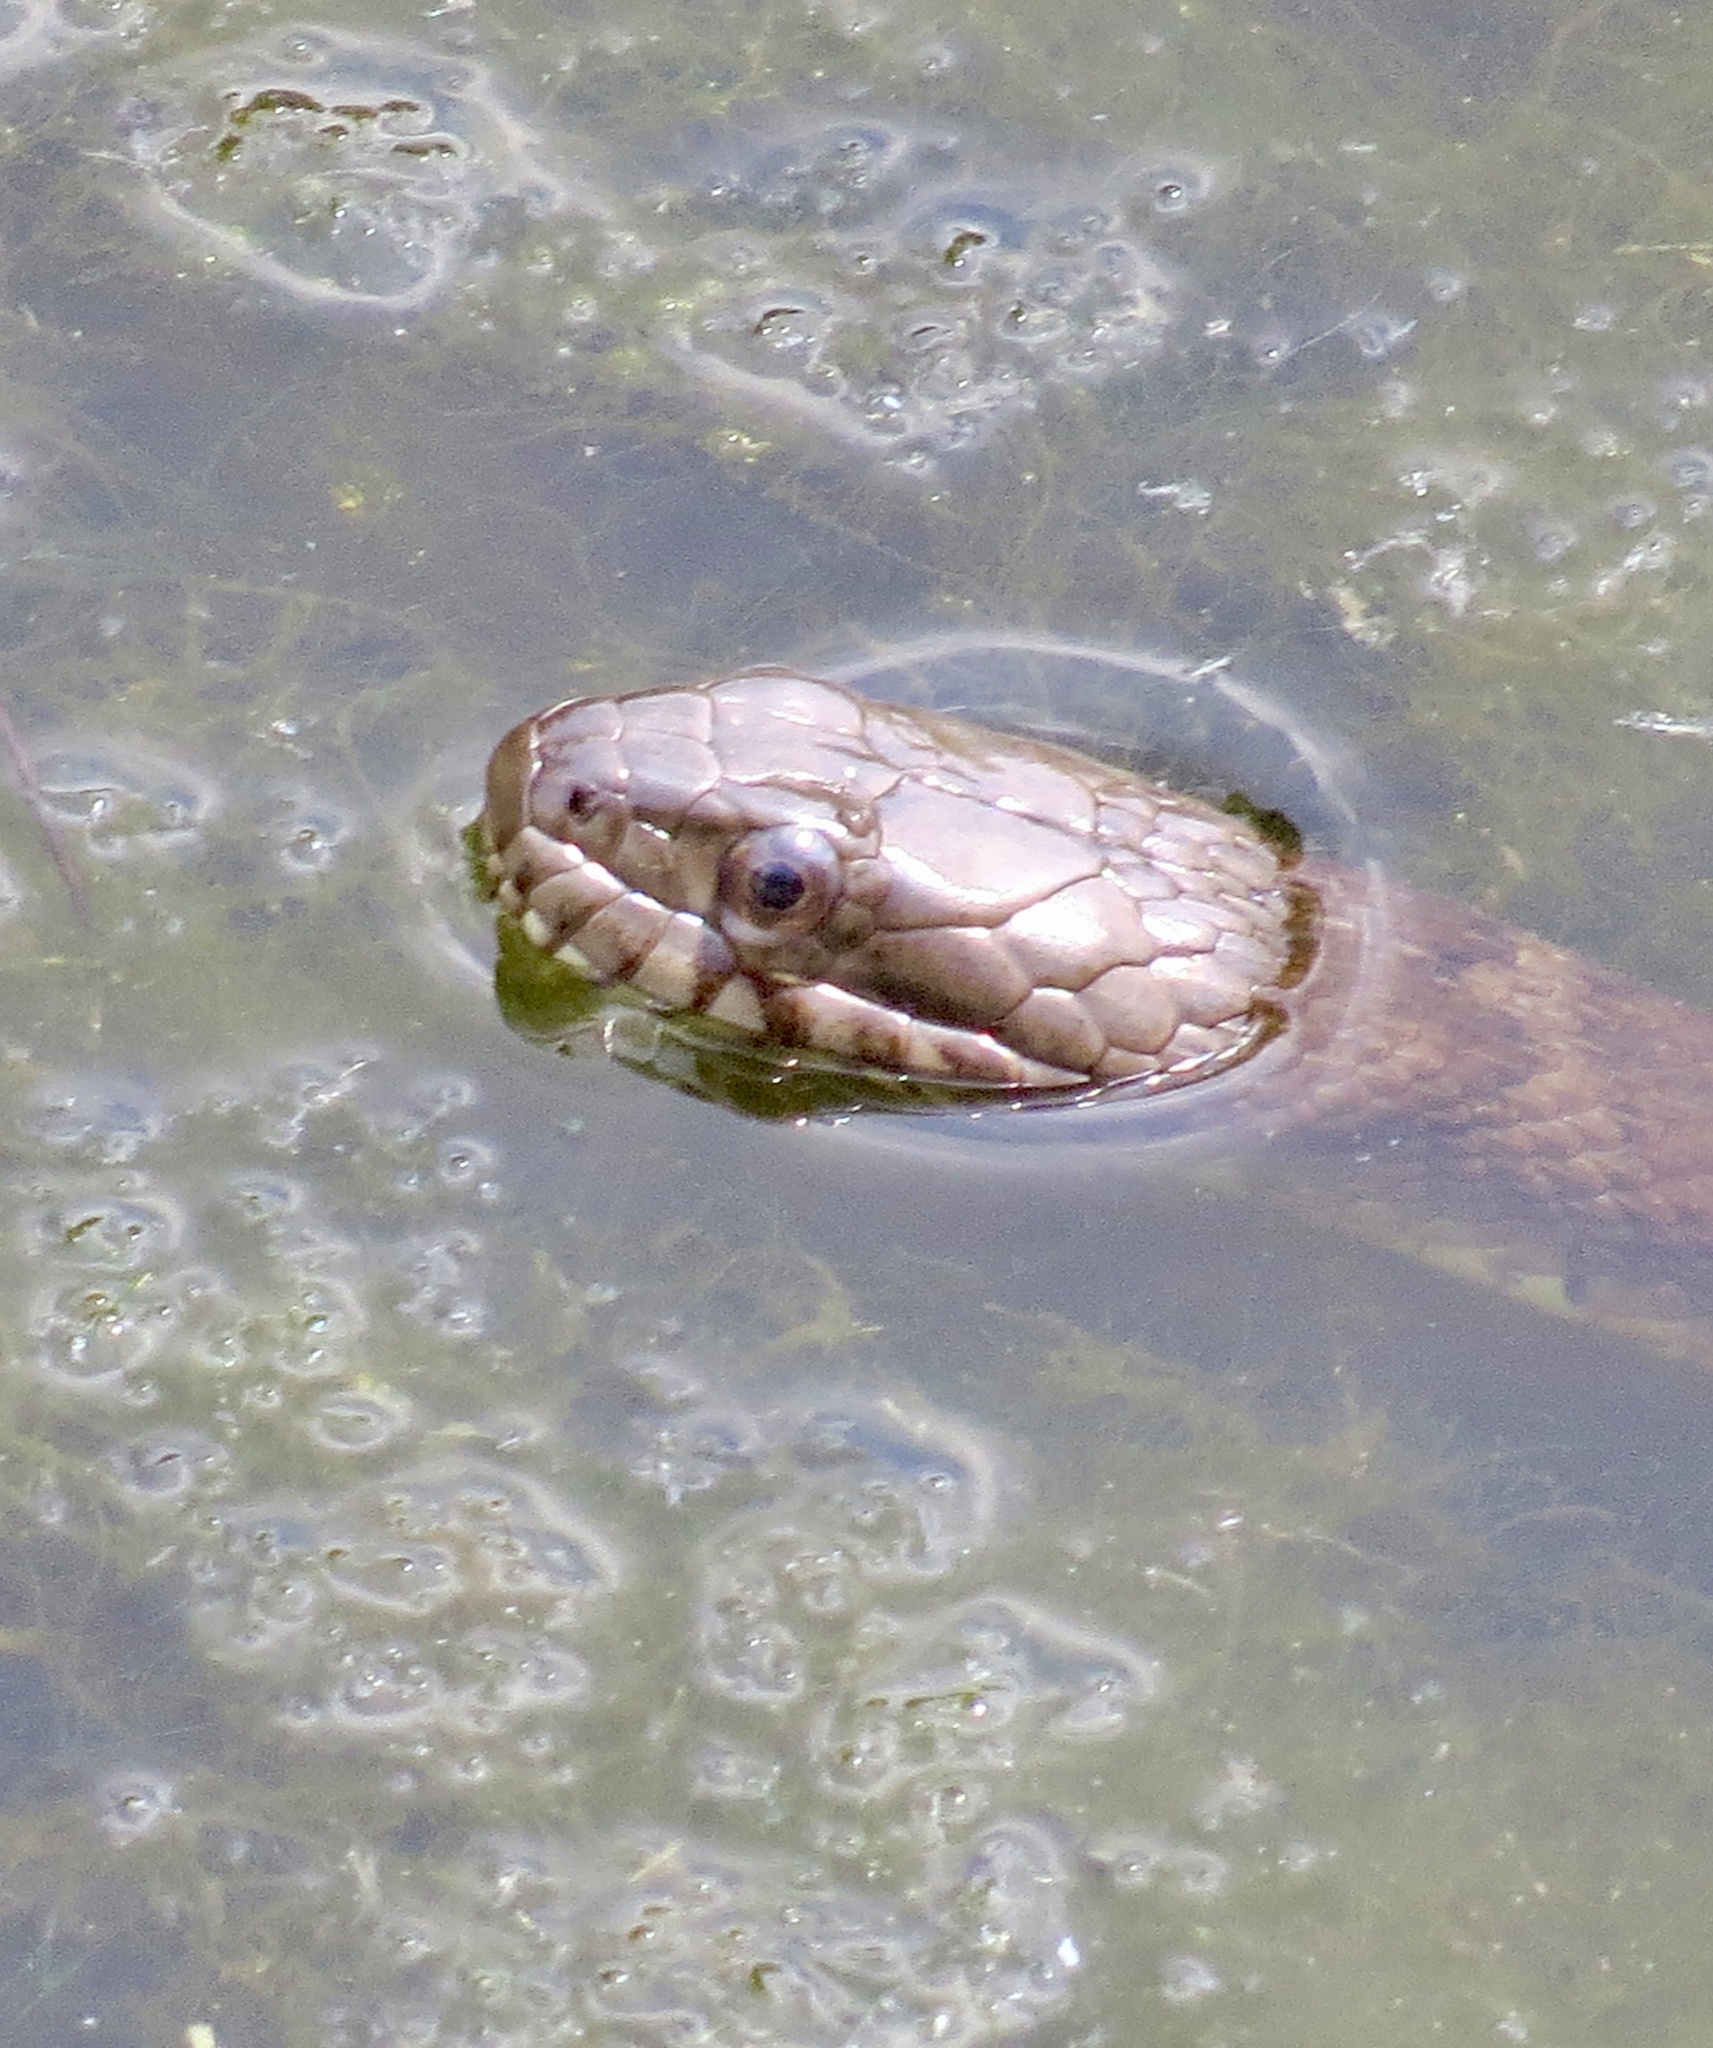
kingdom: Animalia
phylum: Chordata
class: Squamata
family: Colubridae
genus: Nerodia
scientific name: Nerodia sipedon
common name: Northern water snake
